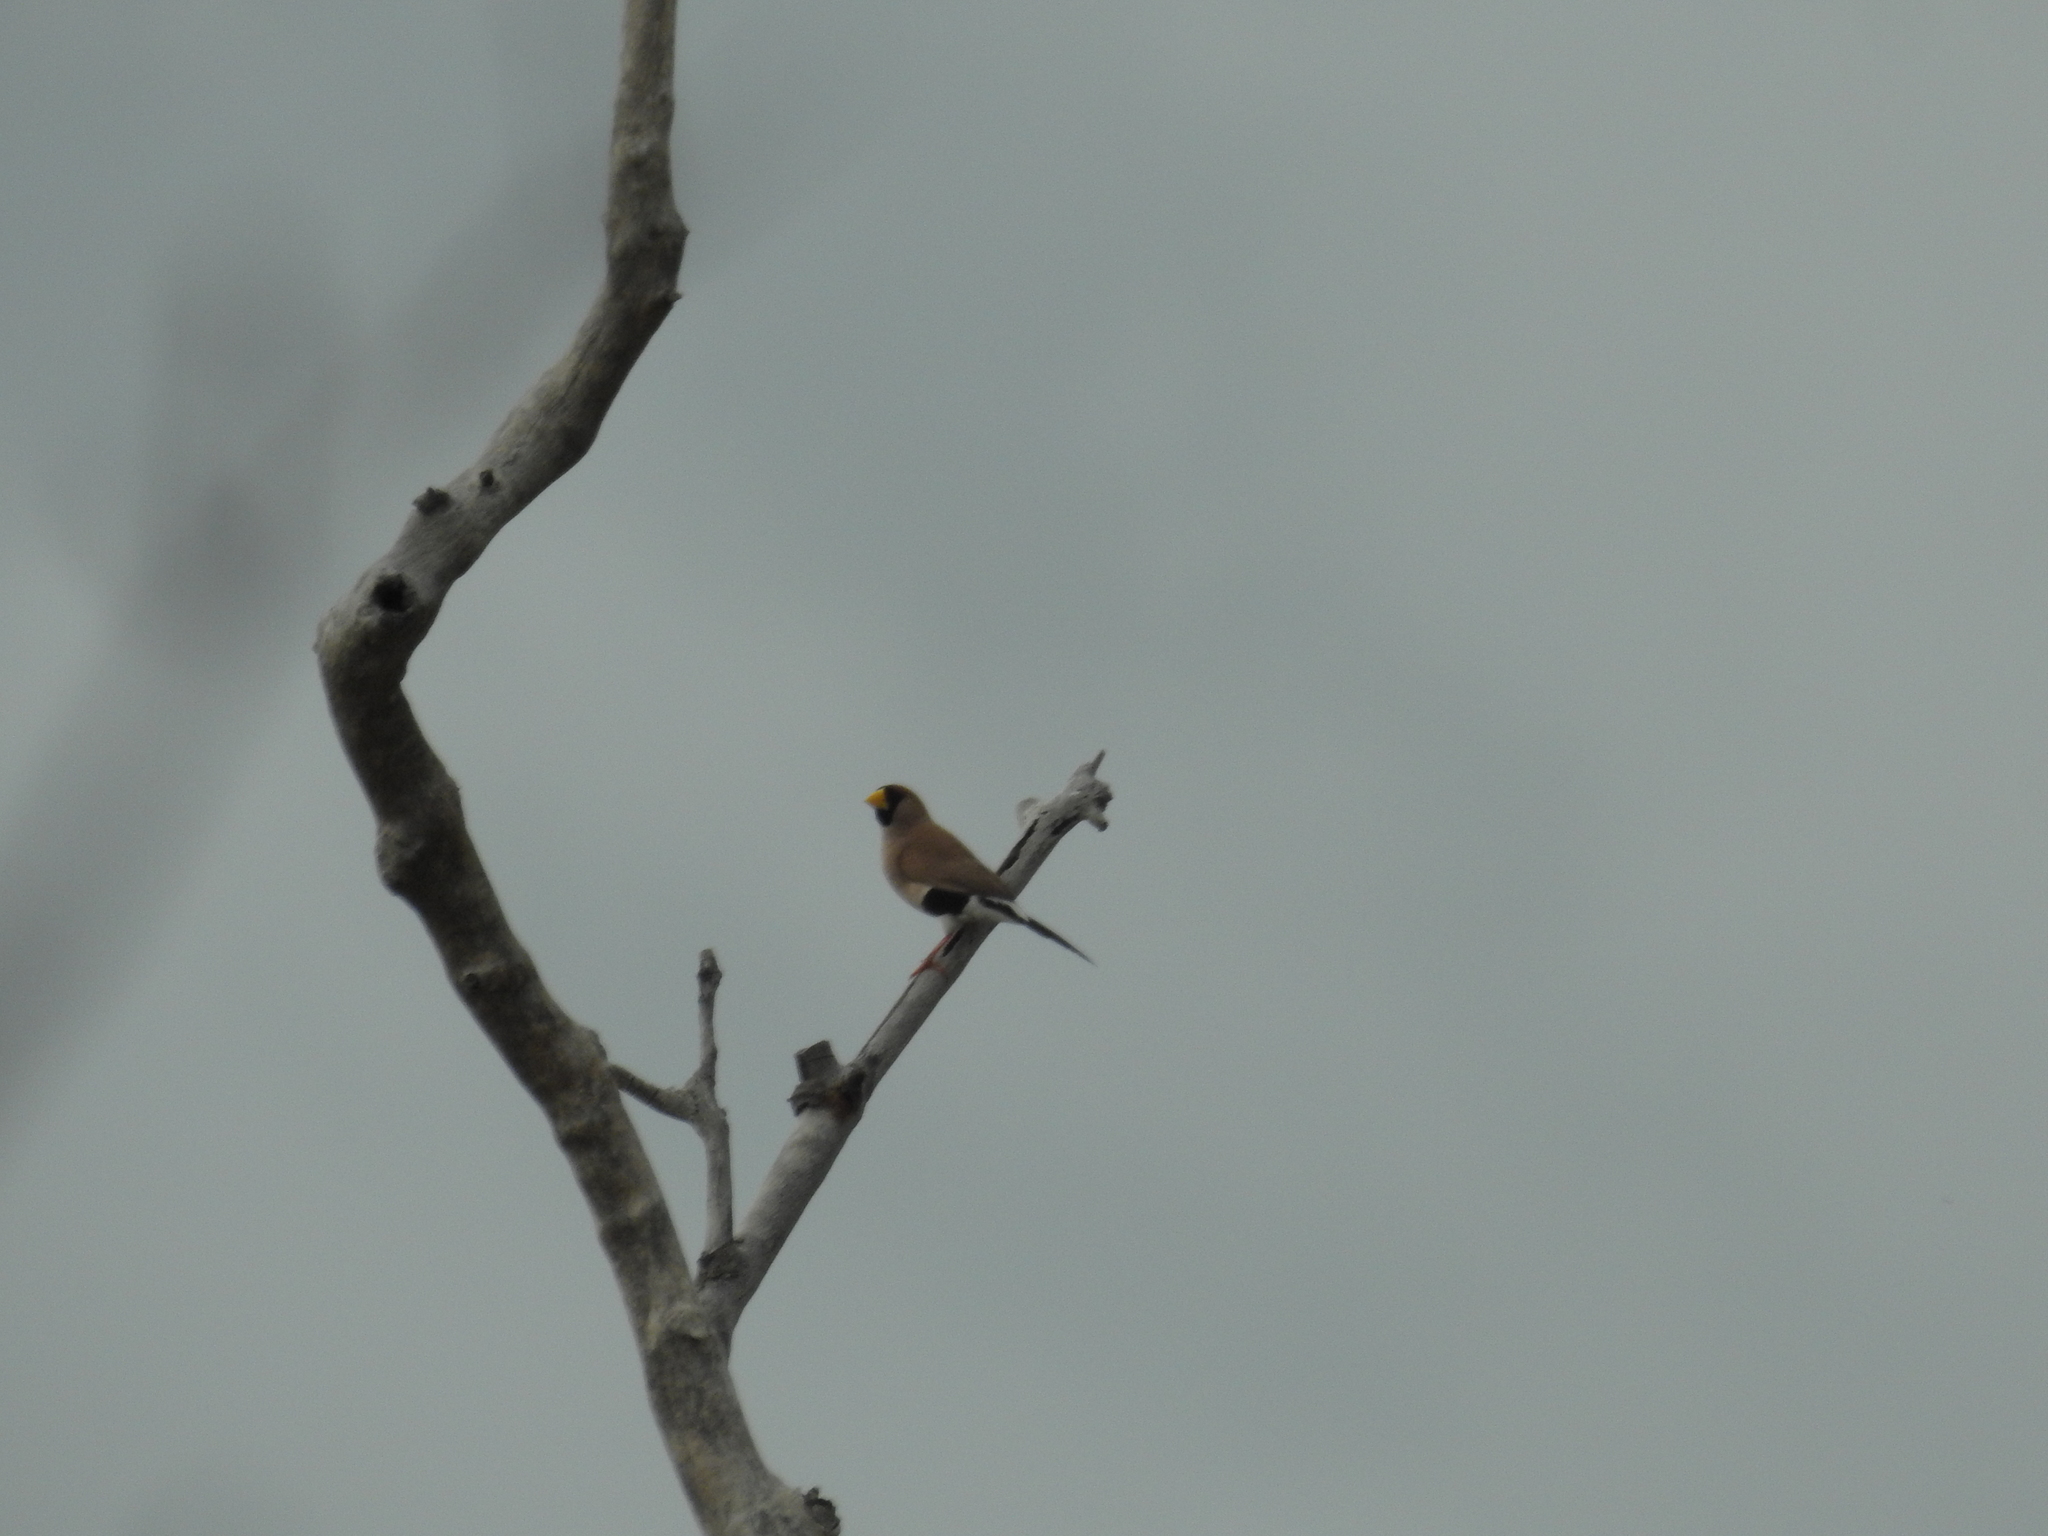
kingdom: Animalia
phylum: Chordata
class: Aves
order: Passeriformes
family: Estrildidae
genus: Poephila
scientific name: Poephila personata
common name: Masked finch
